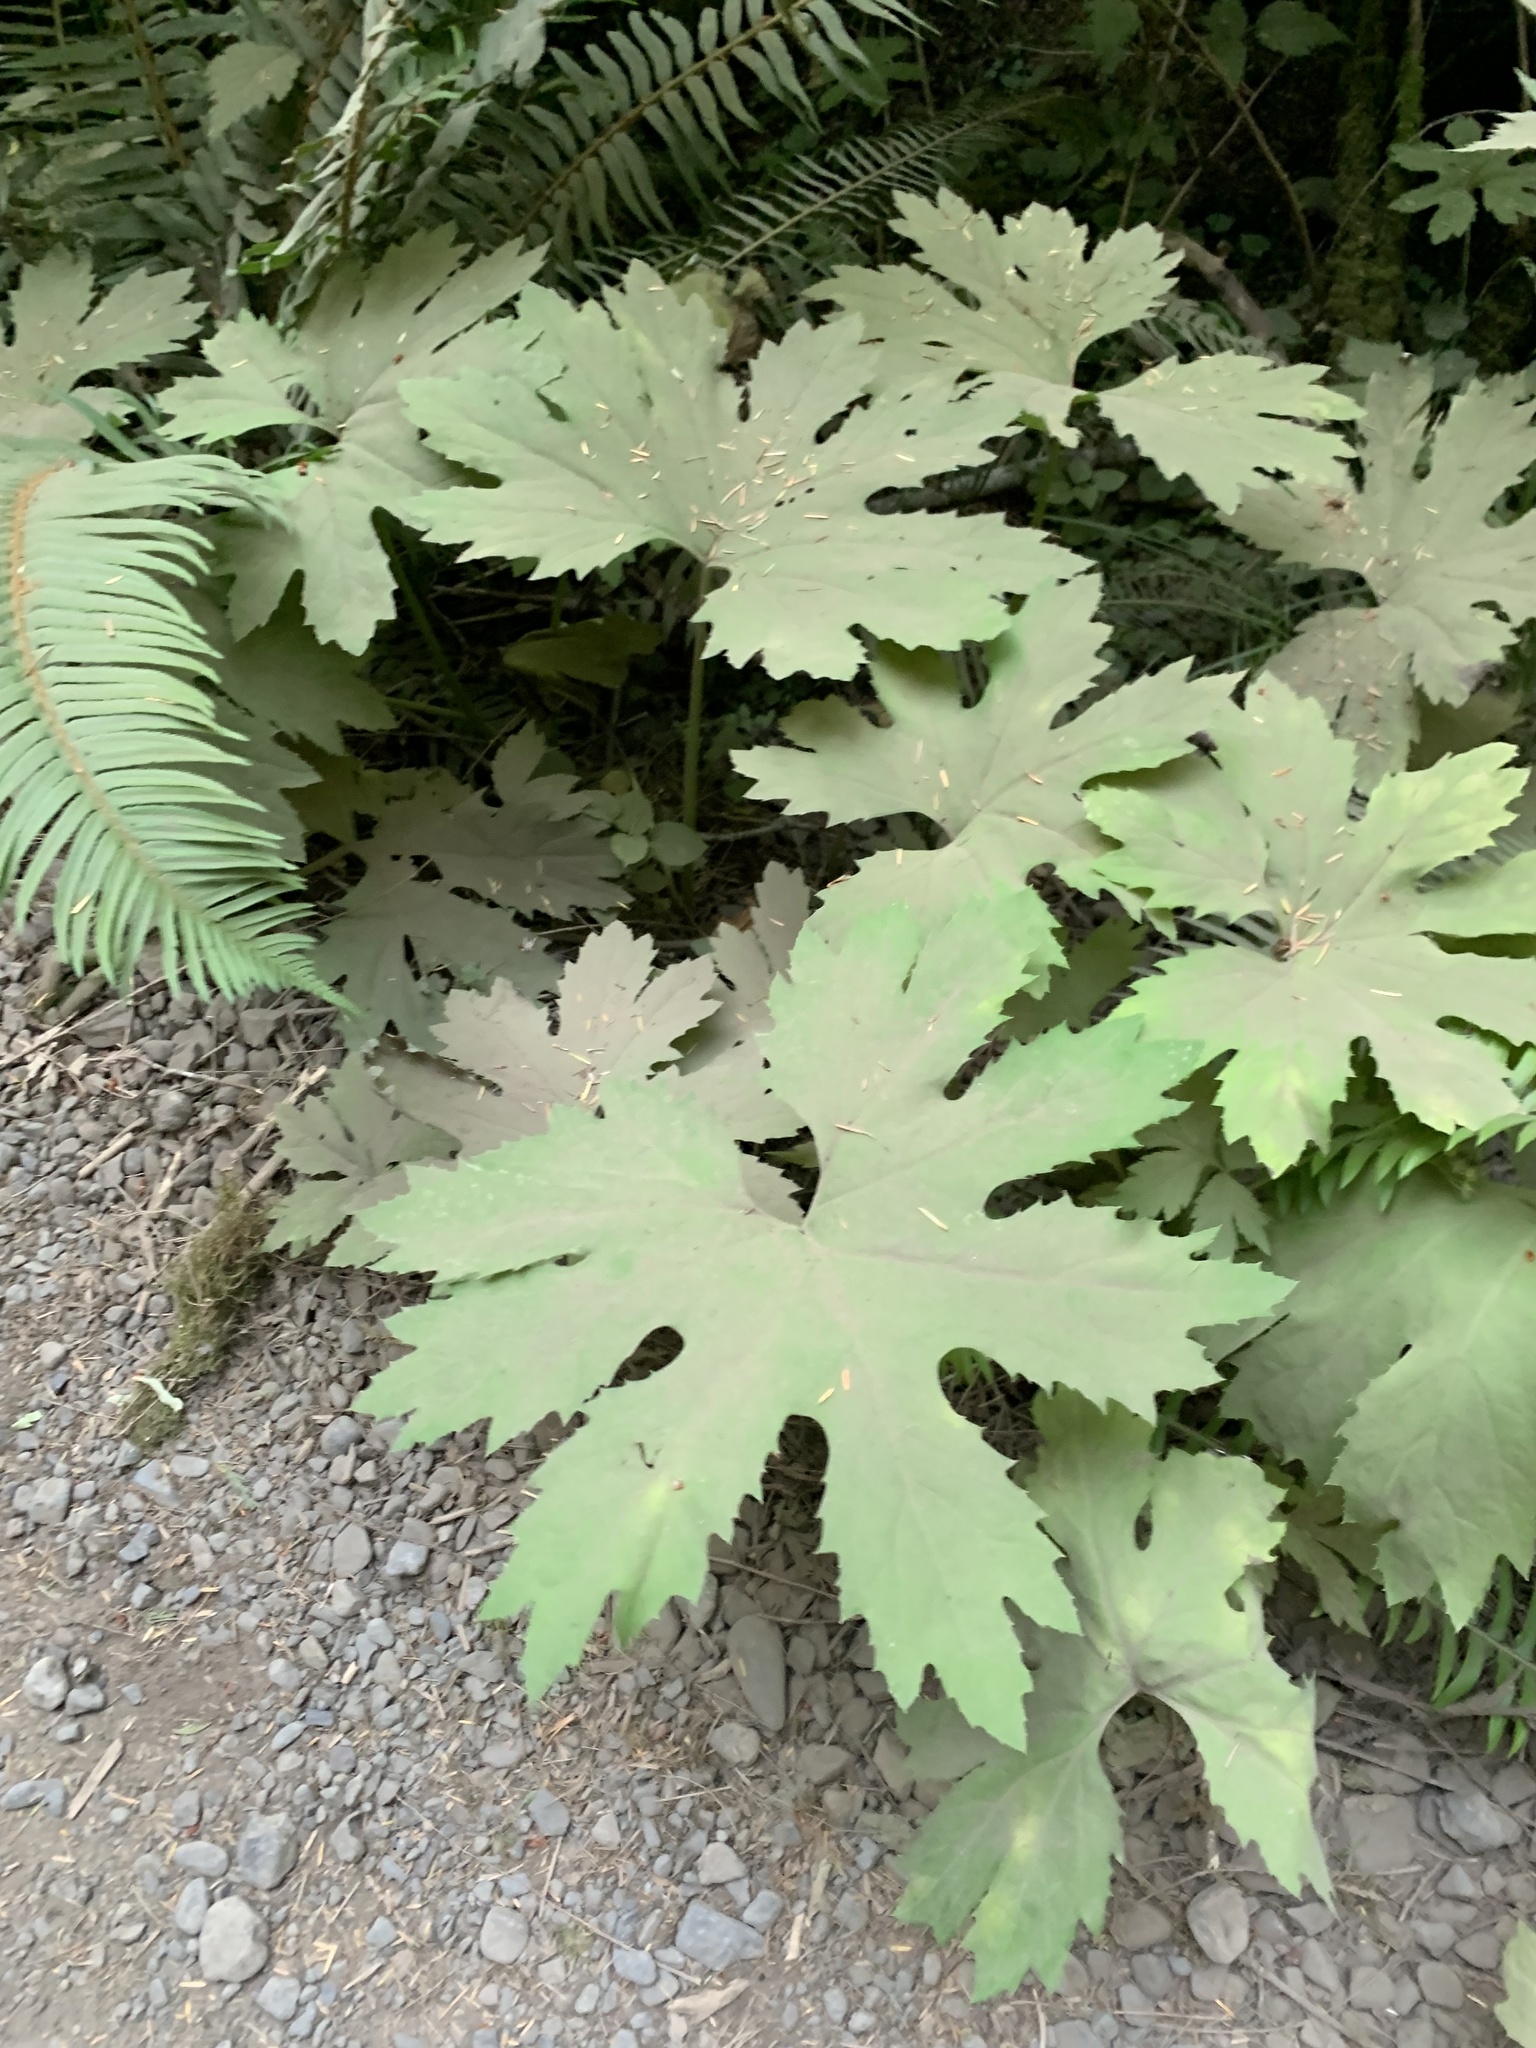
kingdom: Plantae
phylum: Tracheophyta
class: Magnoliopsida
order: Asterales
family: Asteraceae
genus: Petasites
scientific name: Petasites frigidus
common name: Arctic butterbur
